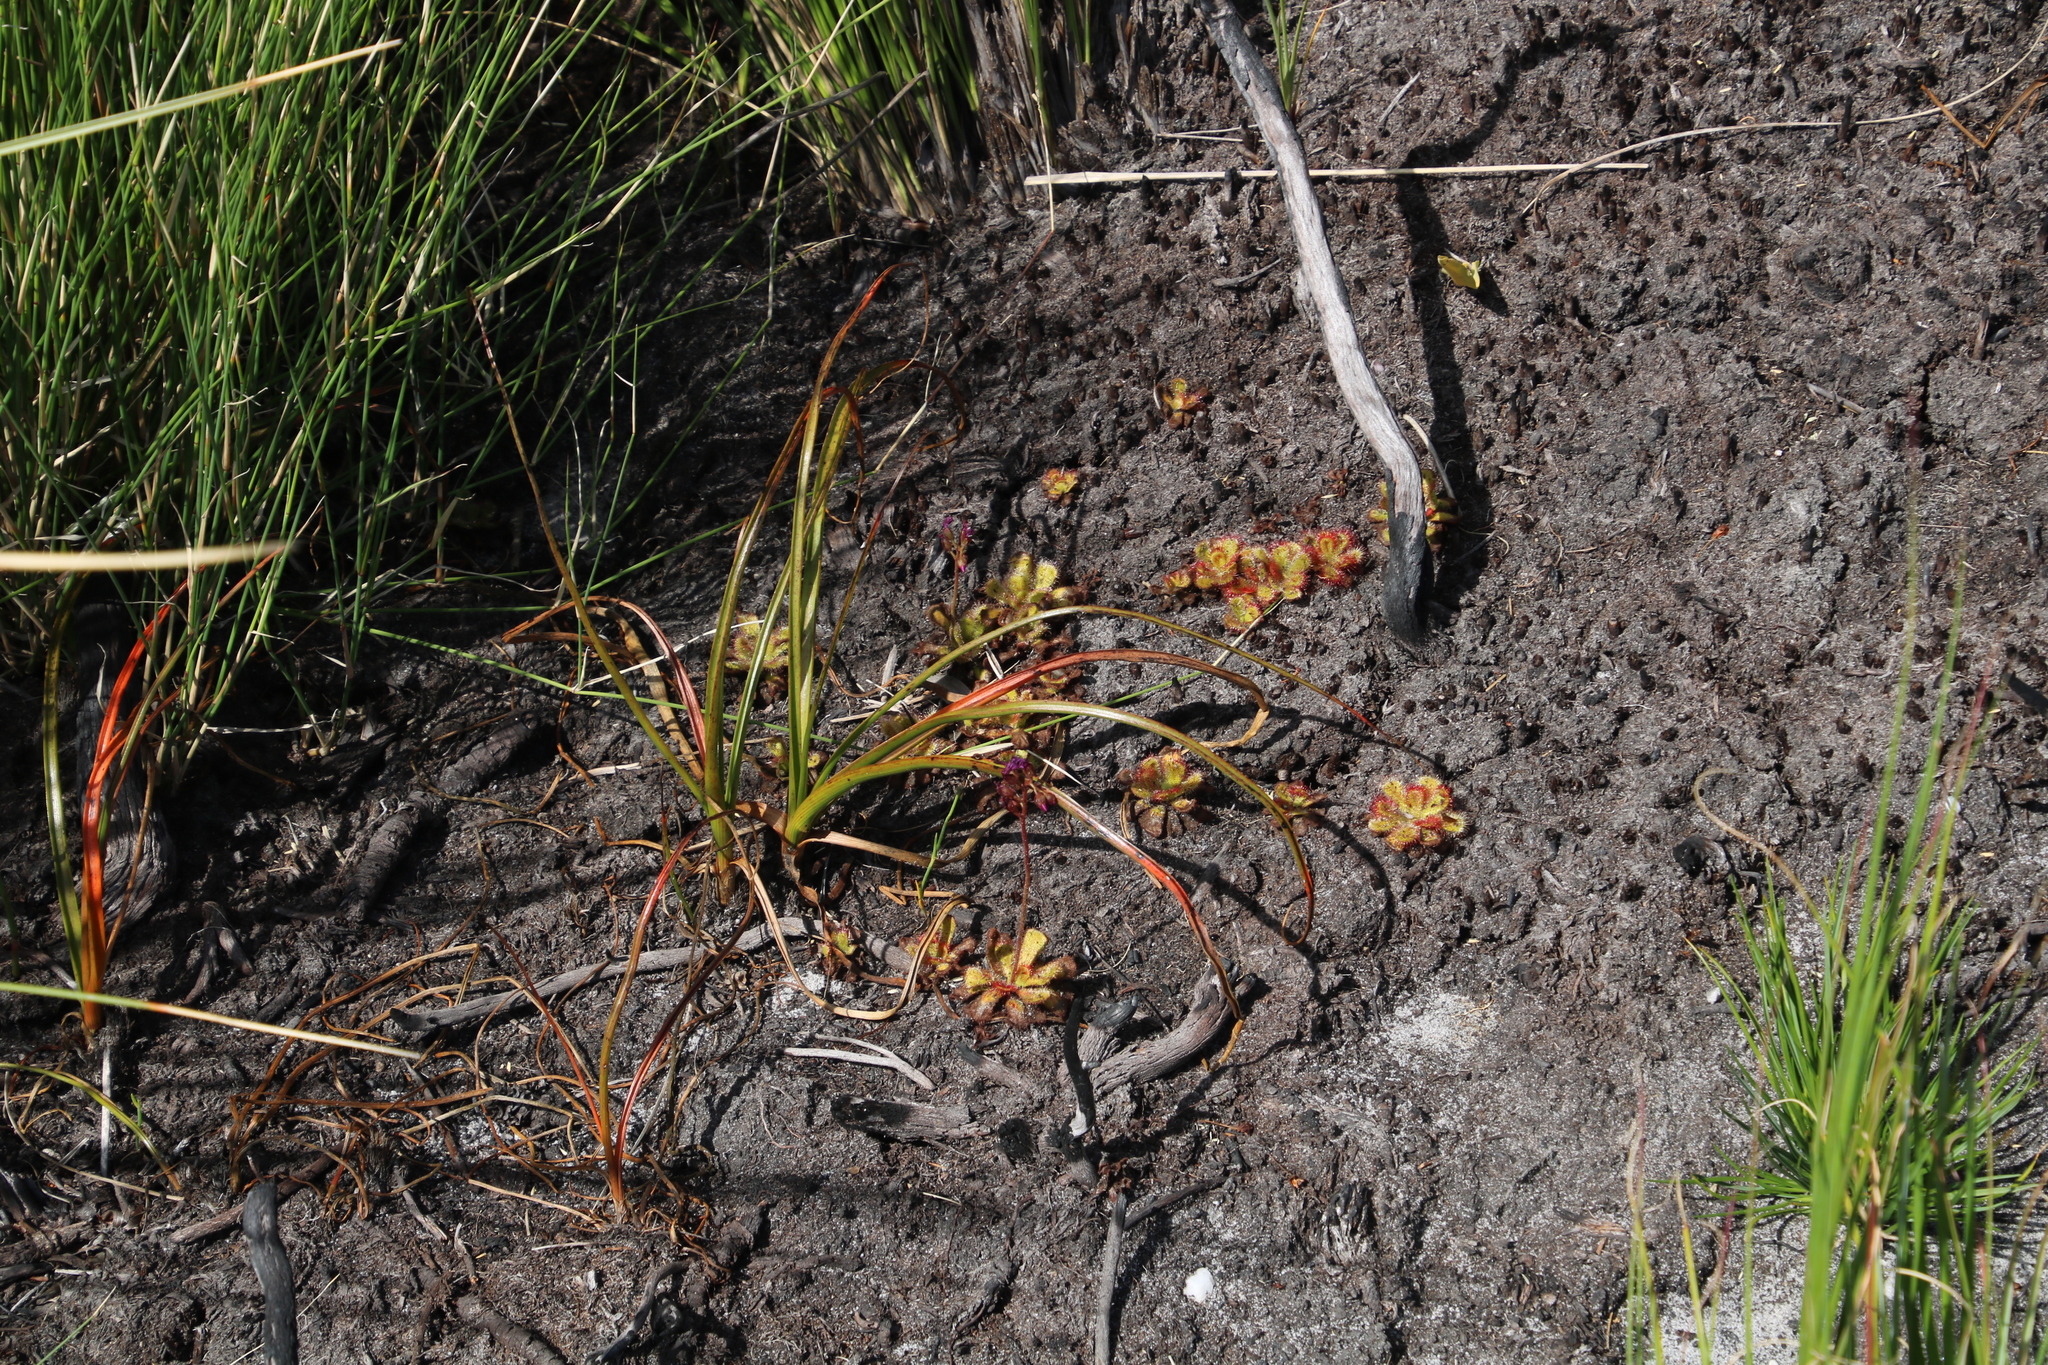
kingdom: Plantae
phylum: Tracheophyta
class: Magnoliopsida
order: Caryophyllales
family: Droseraceae
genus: Drosera
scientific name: Drosera cuneifolia
